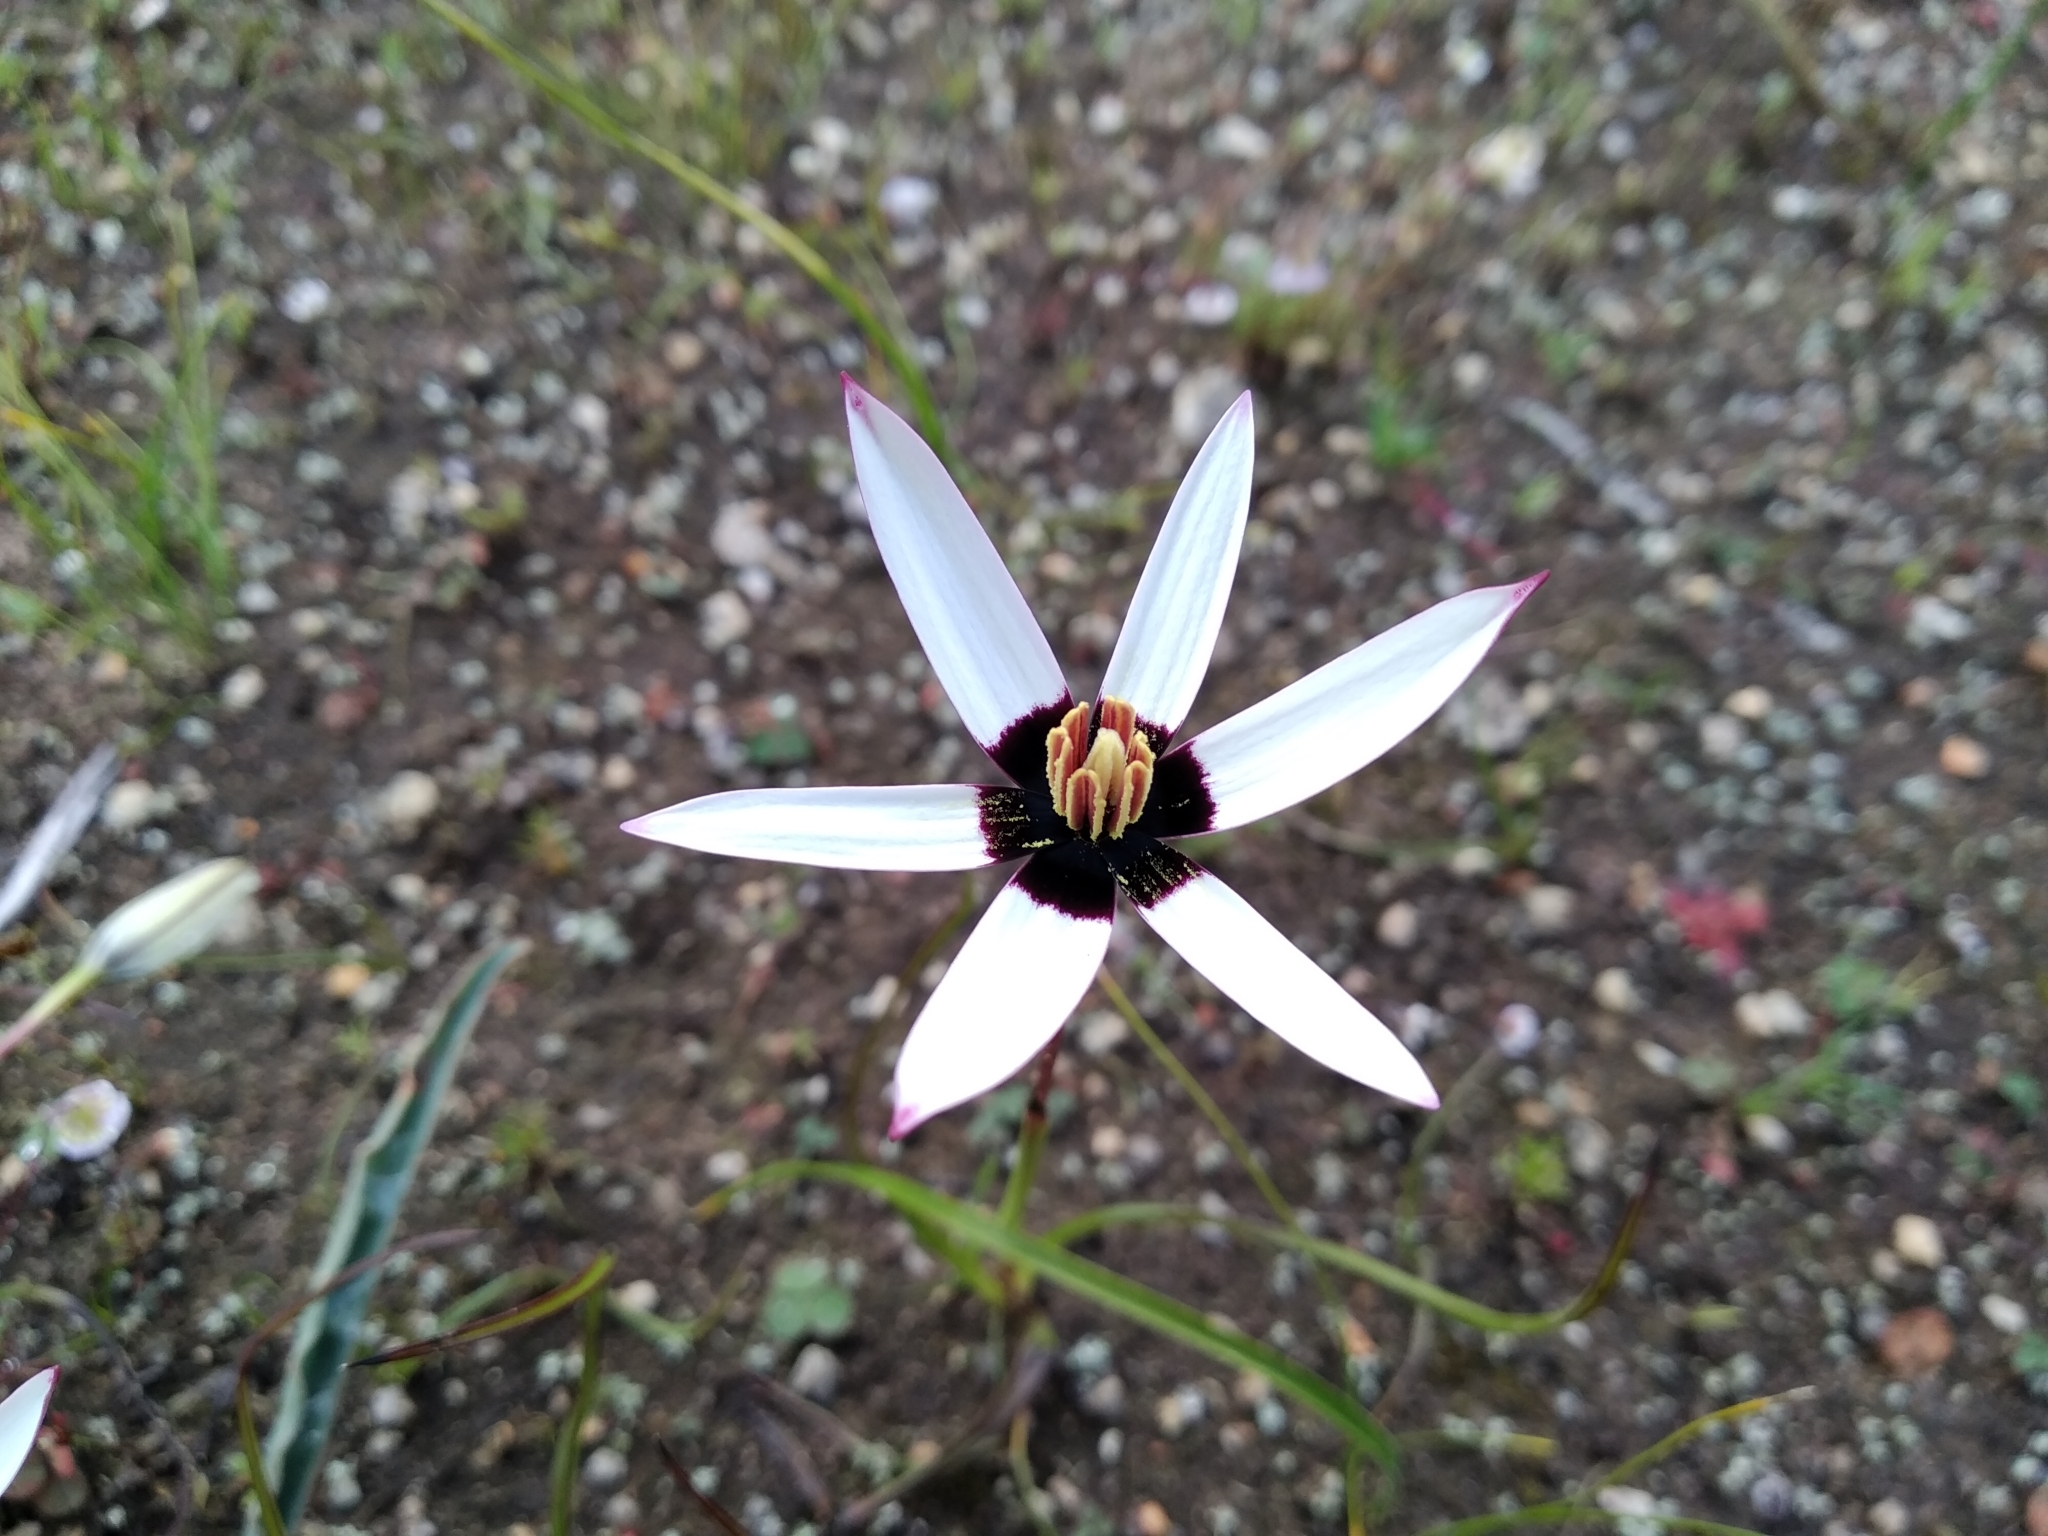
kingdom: Plantae
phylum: Tracheophyta
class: Liliopsida
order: Asparagales
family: Hypoxidaceae
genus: Pauridia
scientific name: Pauridia capensis
